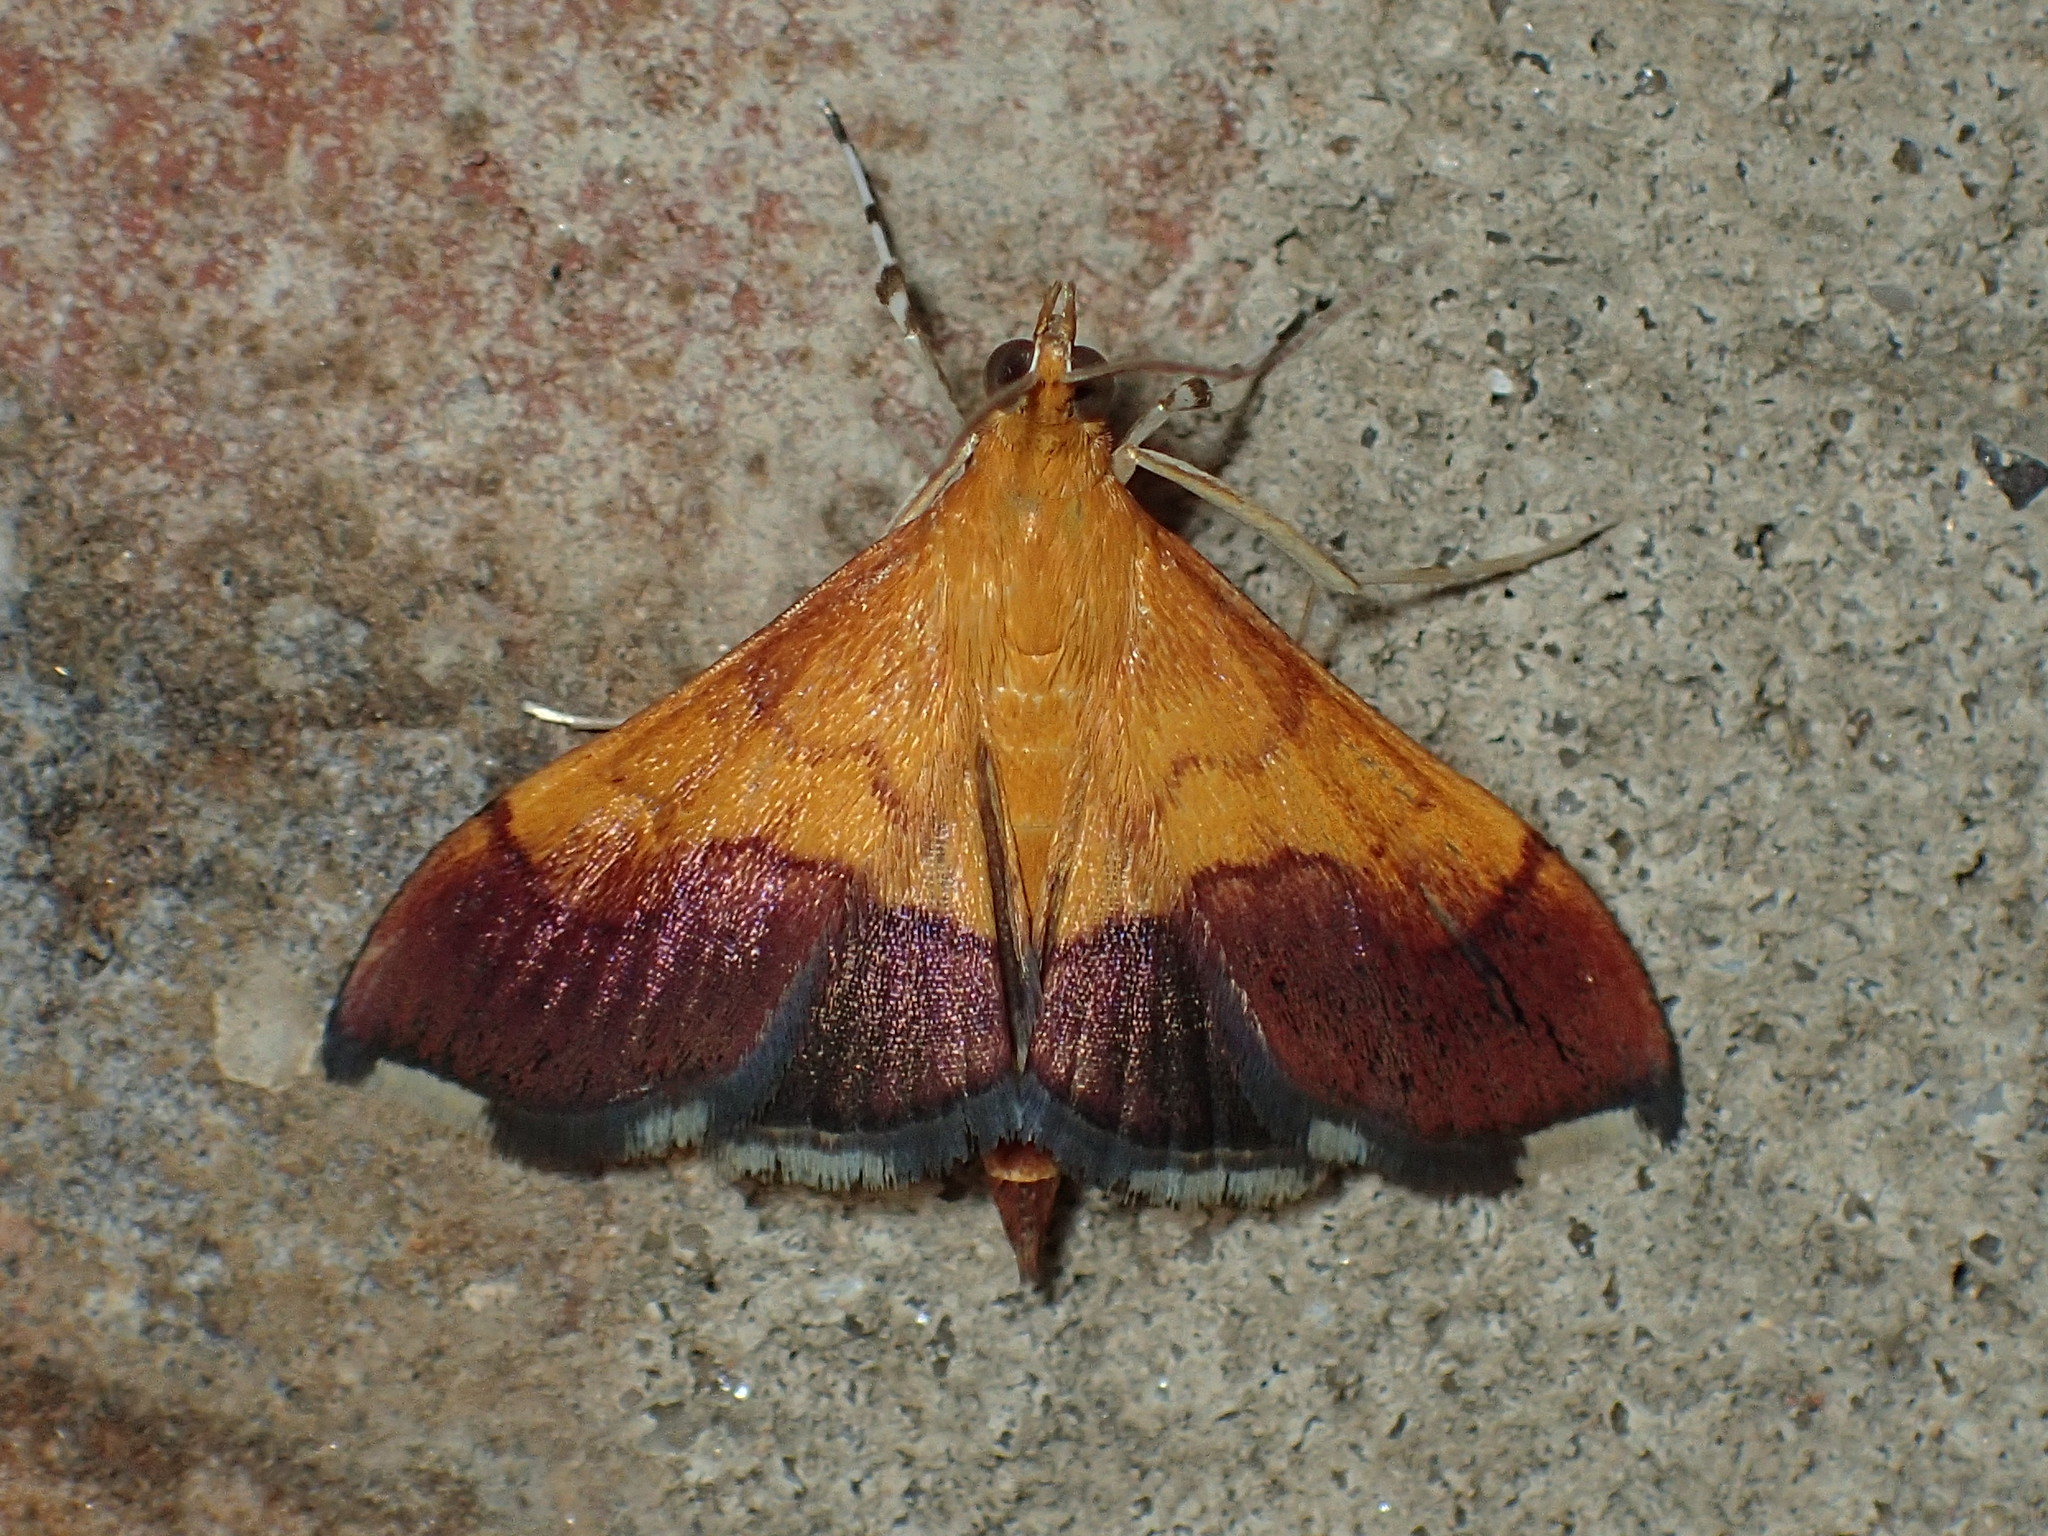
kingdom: Animalia
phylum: Arthropoda
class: Insecta
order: Lepidoptera
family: Crambidae
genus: Pyrausta
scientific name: Pyrausta bicoloralis
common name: Bicolored pyrausta moth
